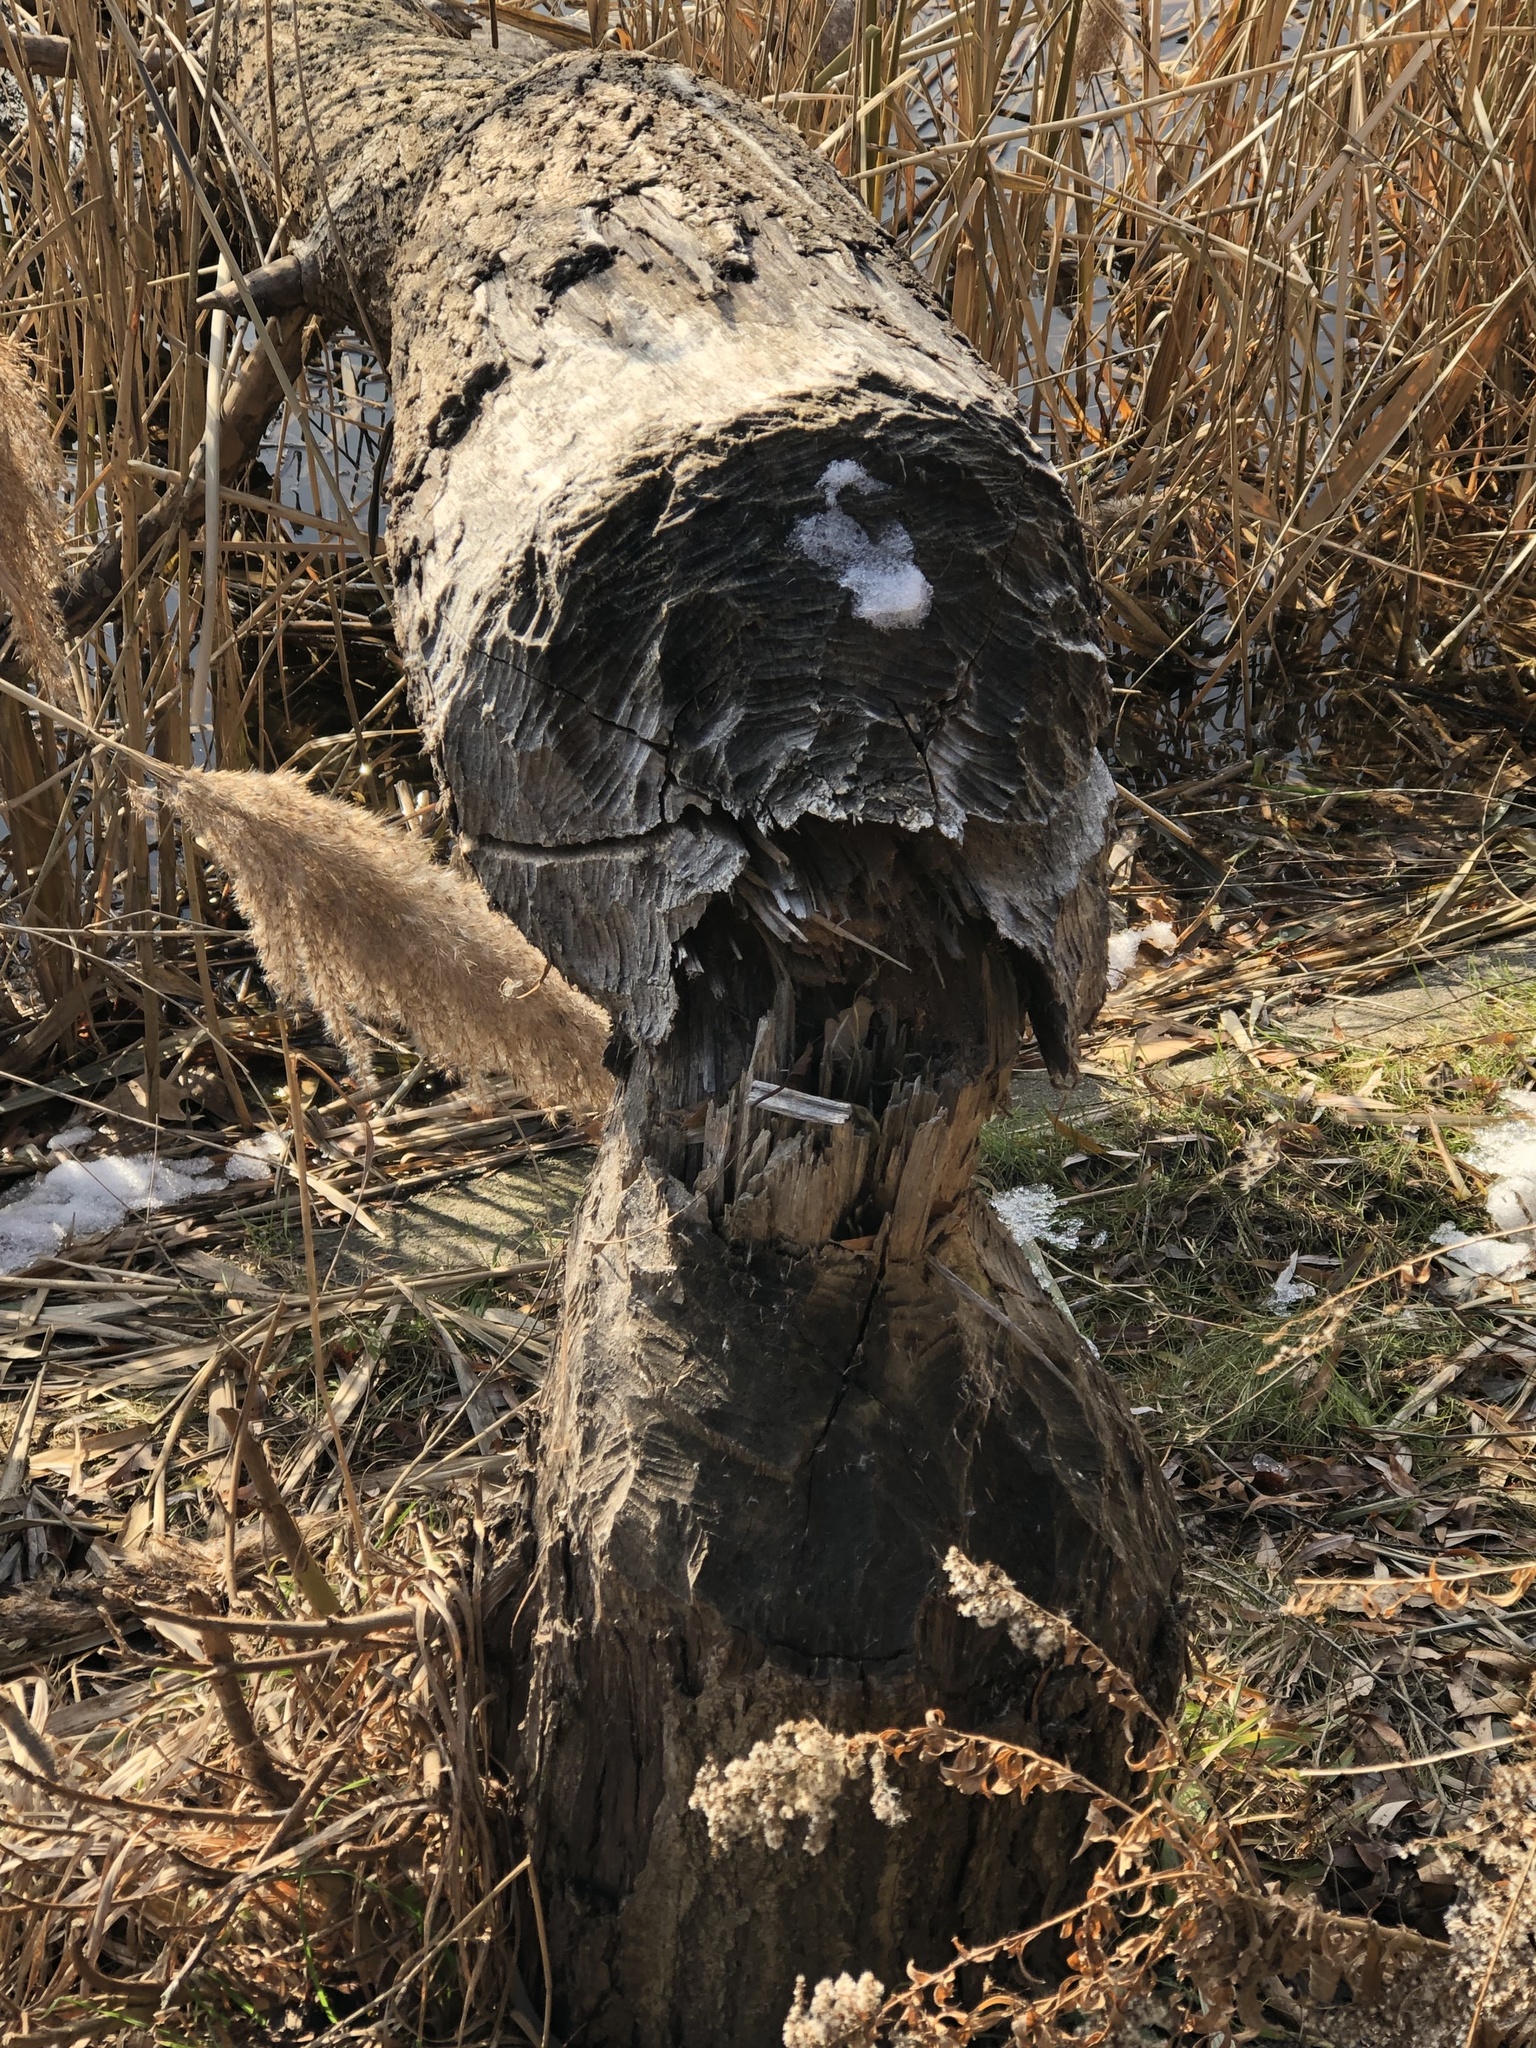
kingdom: Animalia
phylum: Chordata
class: Mammalia
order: Rodentia
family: Castoridae
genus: Castor
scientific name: Castor canadensis
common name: American beaver
